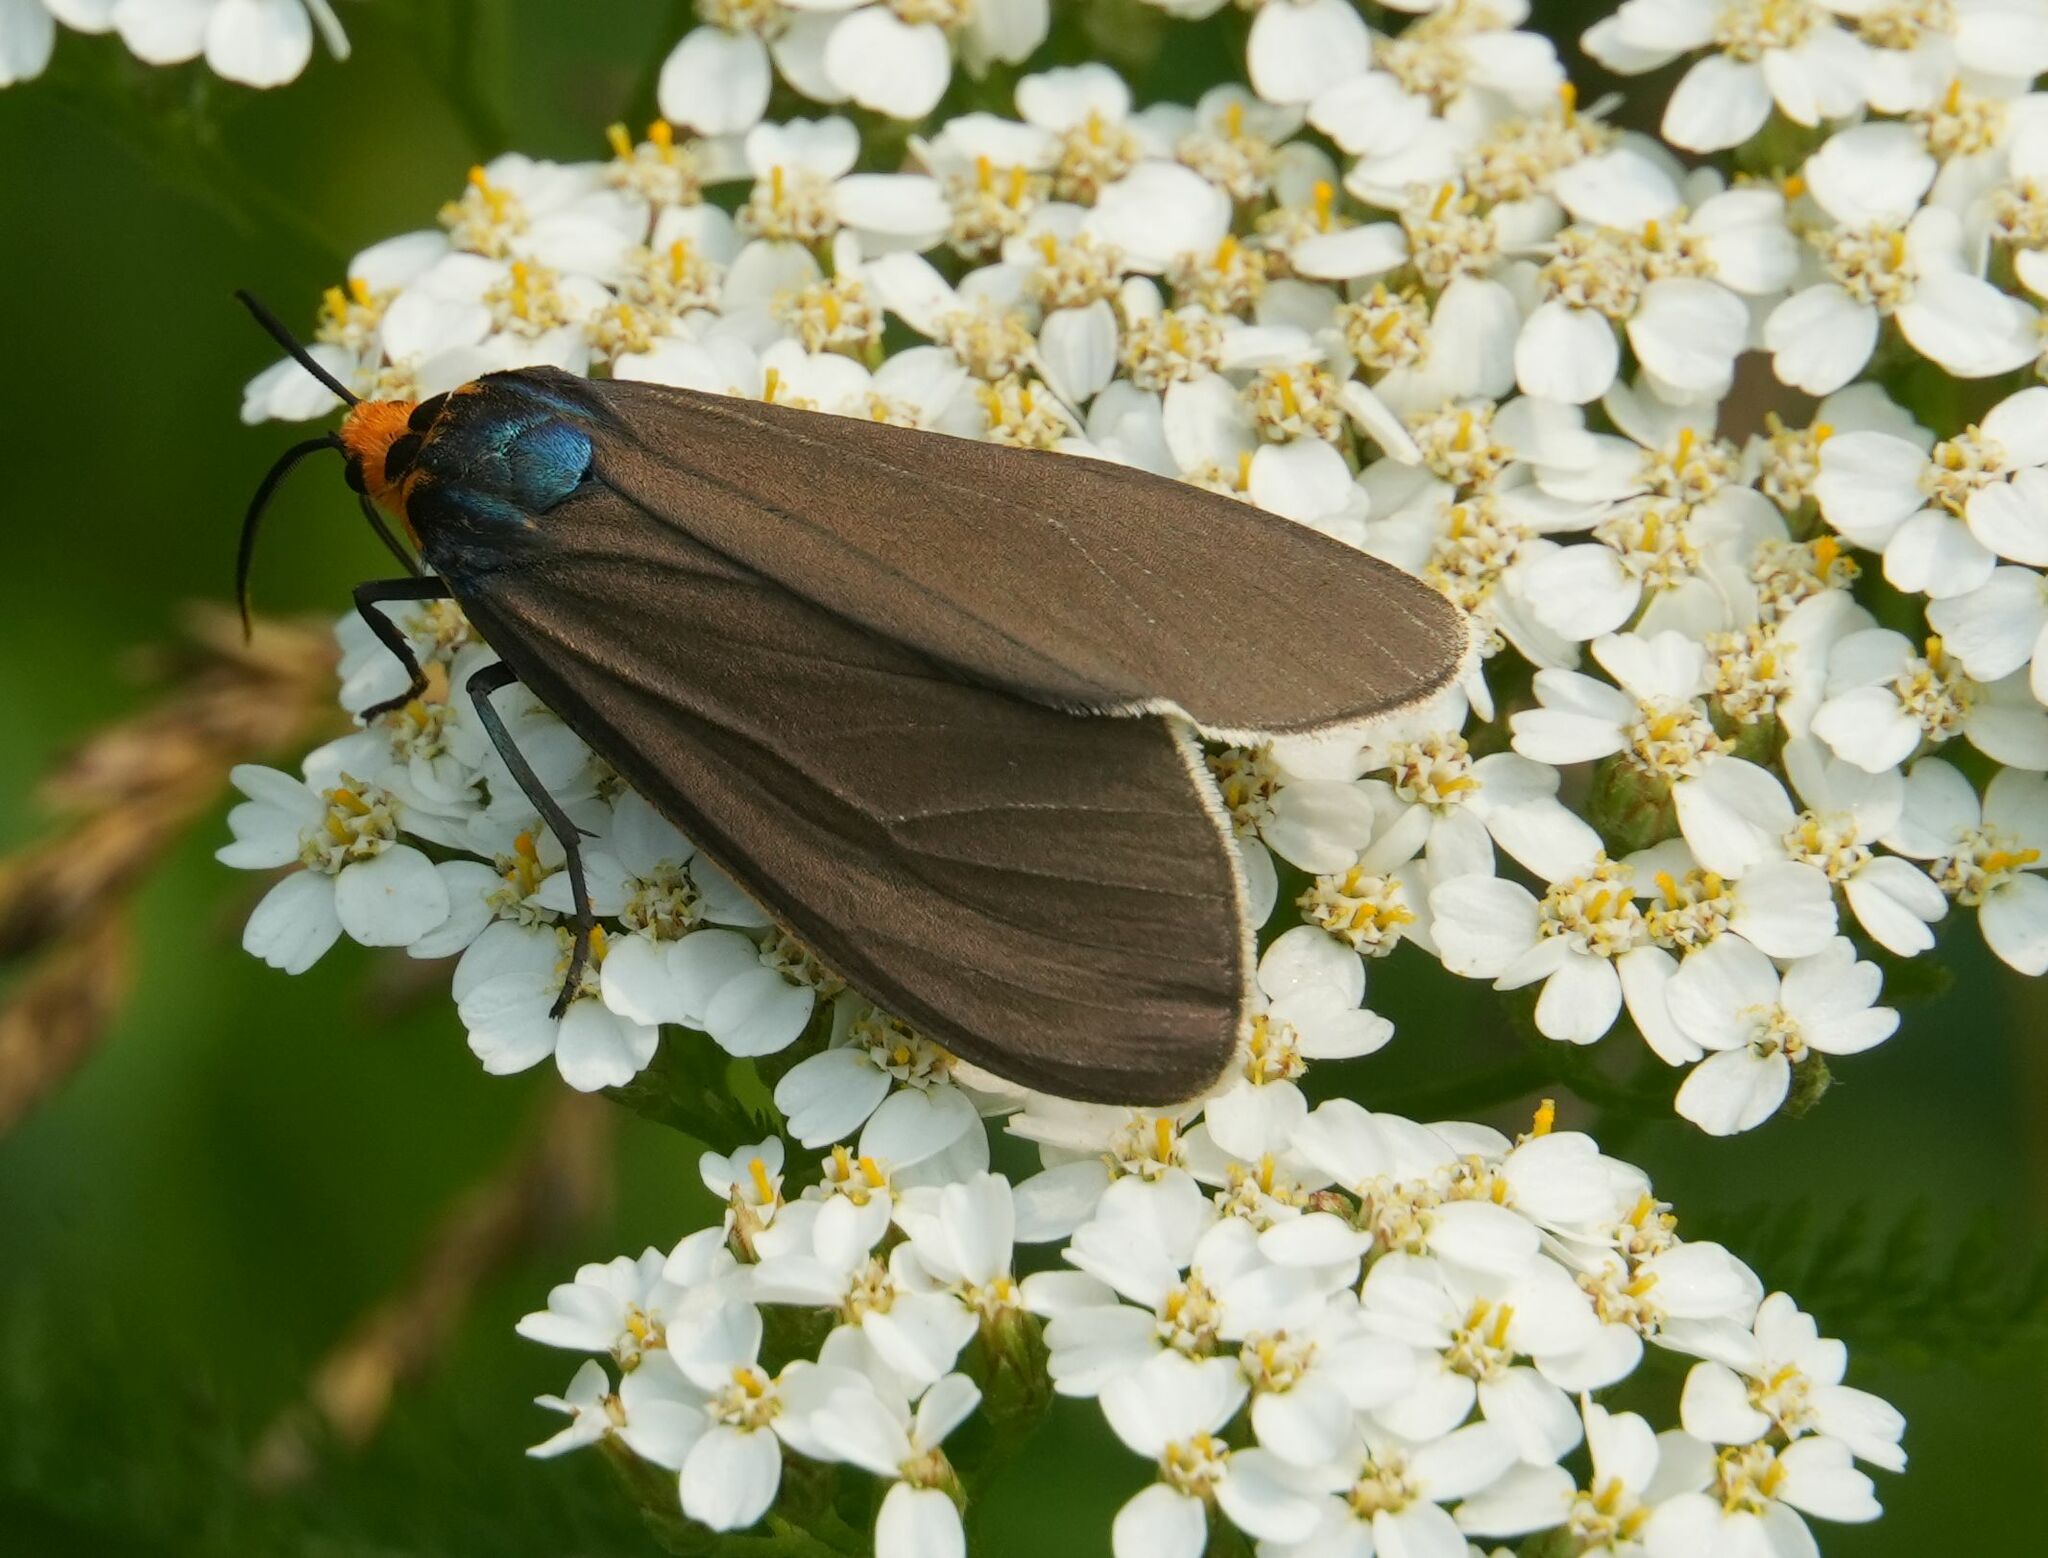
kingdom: Animalia
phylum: Arthropoda
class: Insecta
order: Lepidoptera
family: Erebidae
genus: Ctenucha
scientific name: Ctenucha virginica
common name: Virginia ctenucha moth
